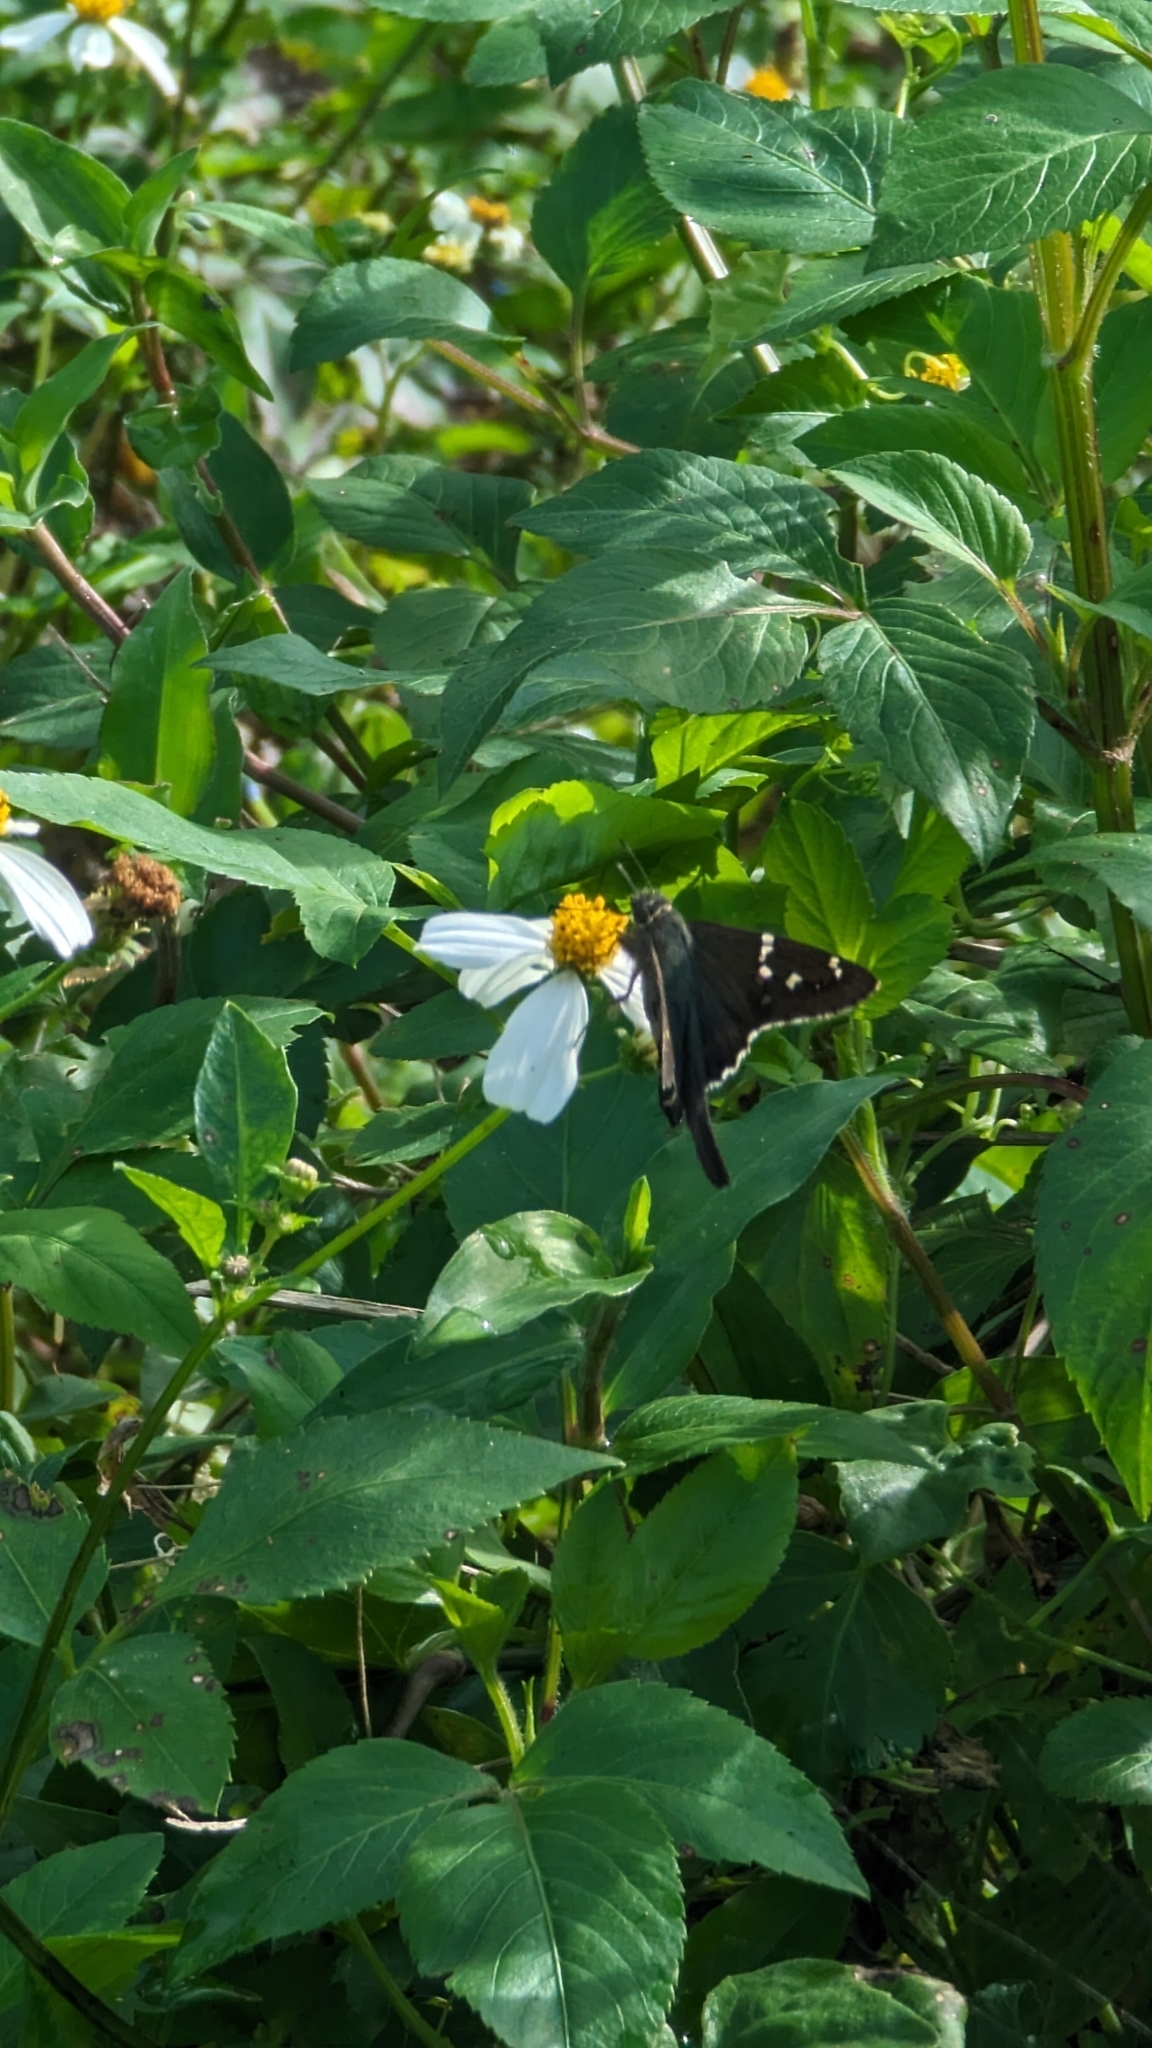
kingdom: Animalia
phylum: Arthropoda
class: Insecta
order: Lepidoptera
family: Hesperiidae
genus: Urbanus
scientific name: Urbanus proteus
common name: Long-tailed skipper
